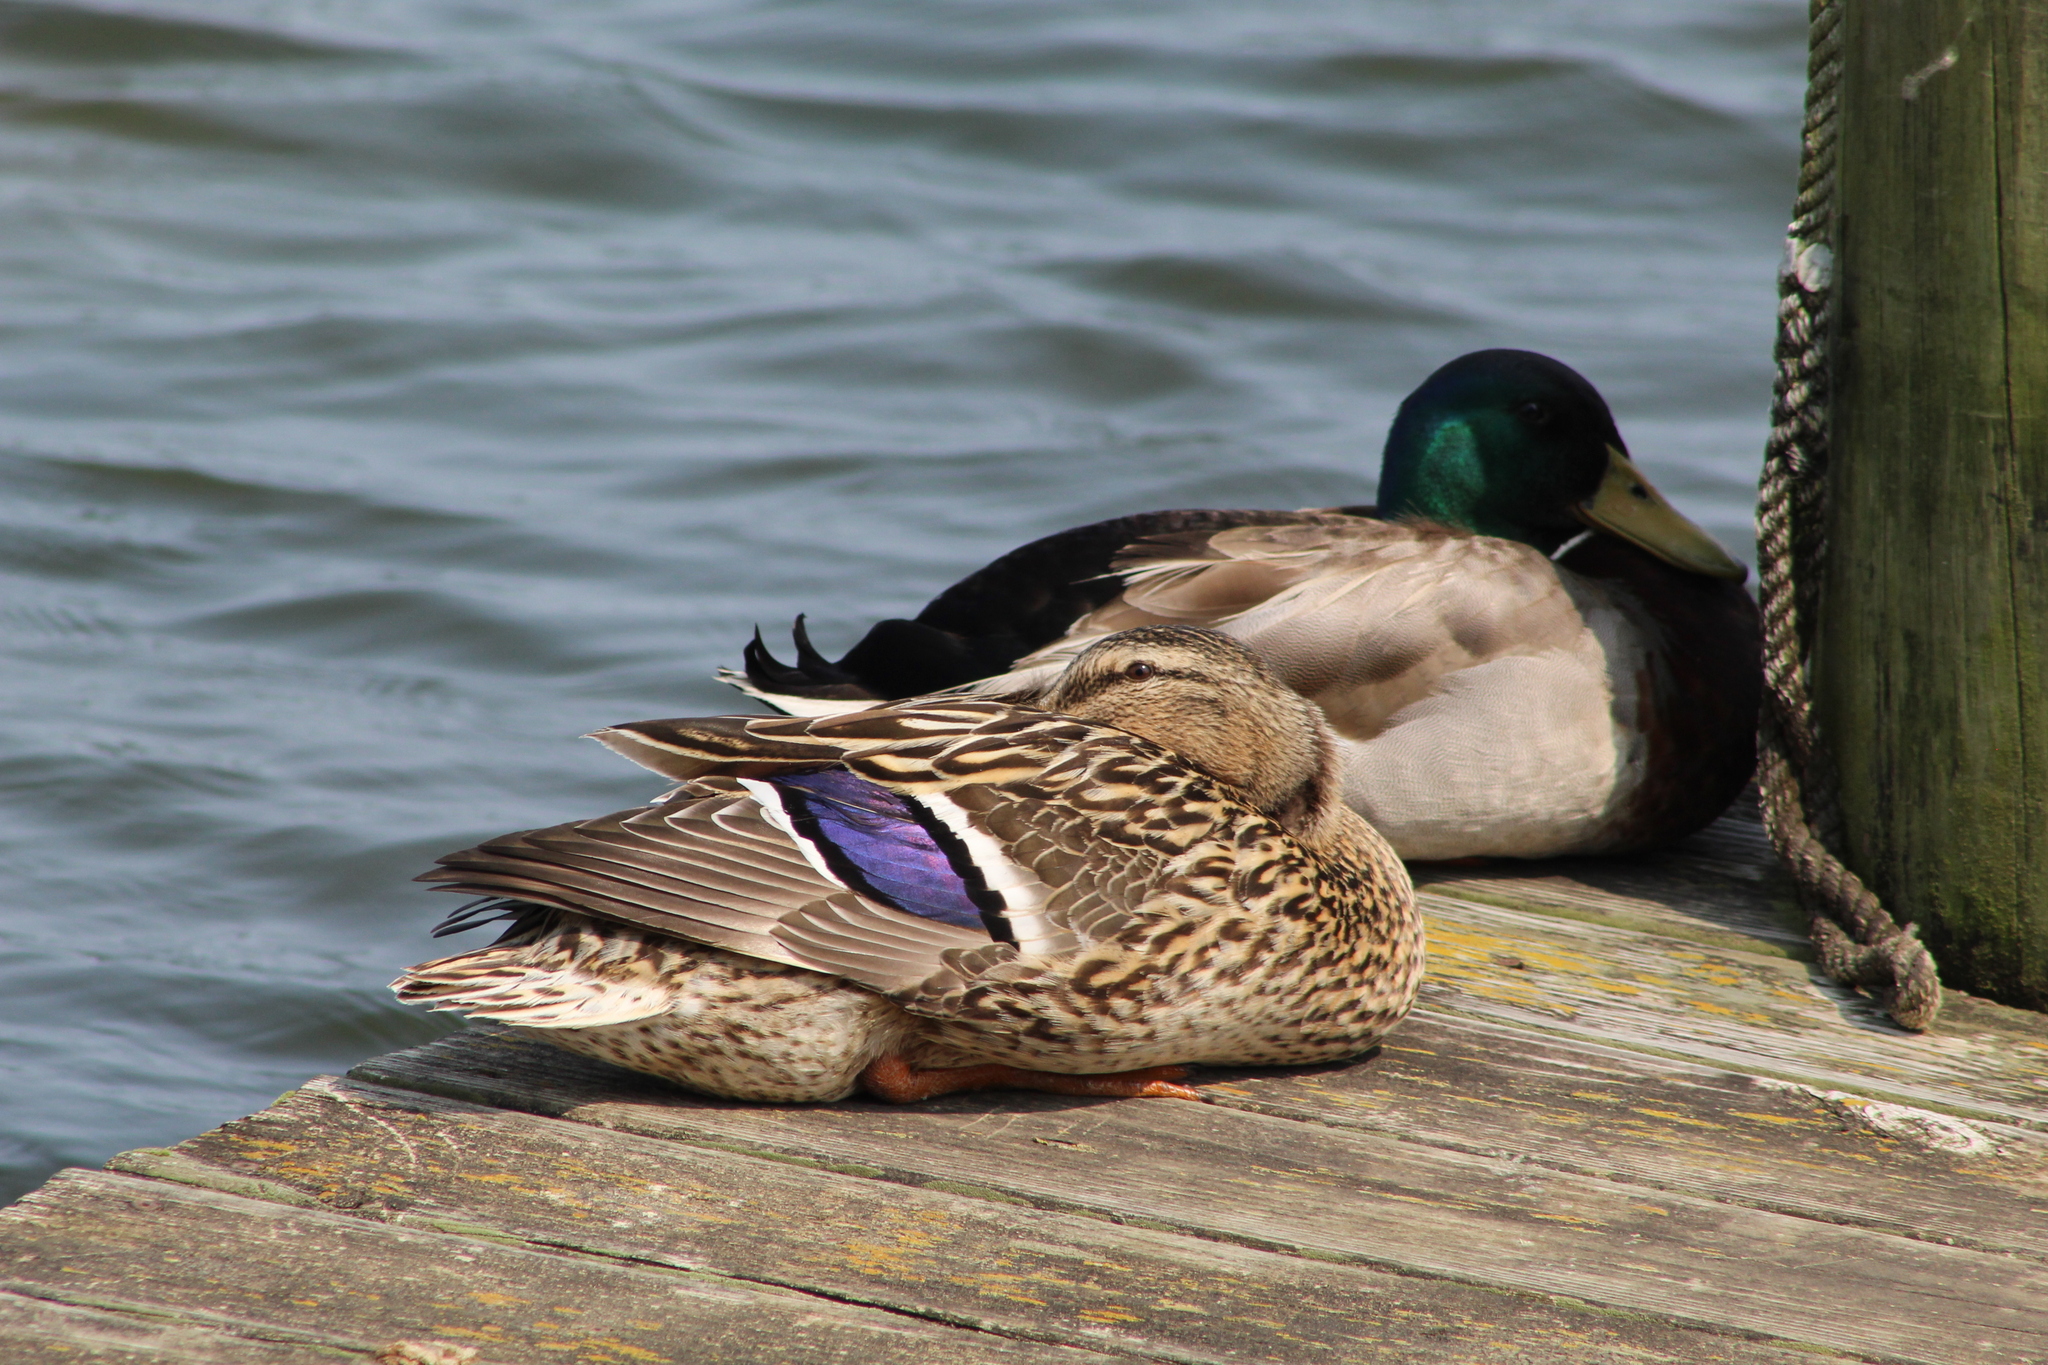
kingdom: Animalia
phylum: Chordata
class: Aves
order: Anseriformes
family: Anatidae
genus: Anas
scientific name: Anas platyrhynchos
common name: Mallard
